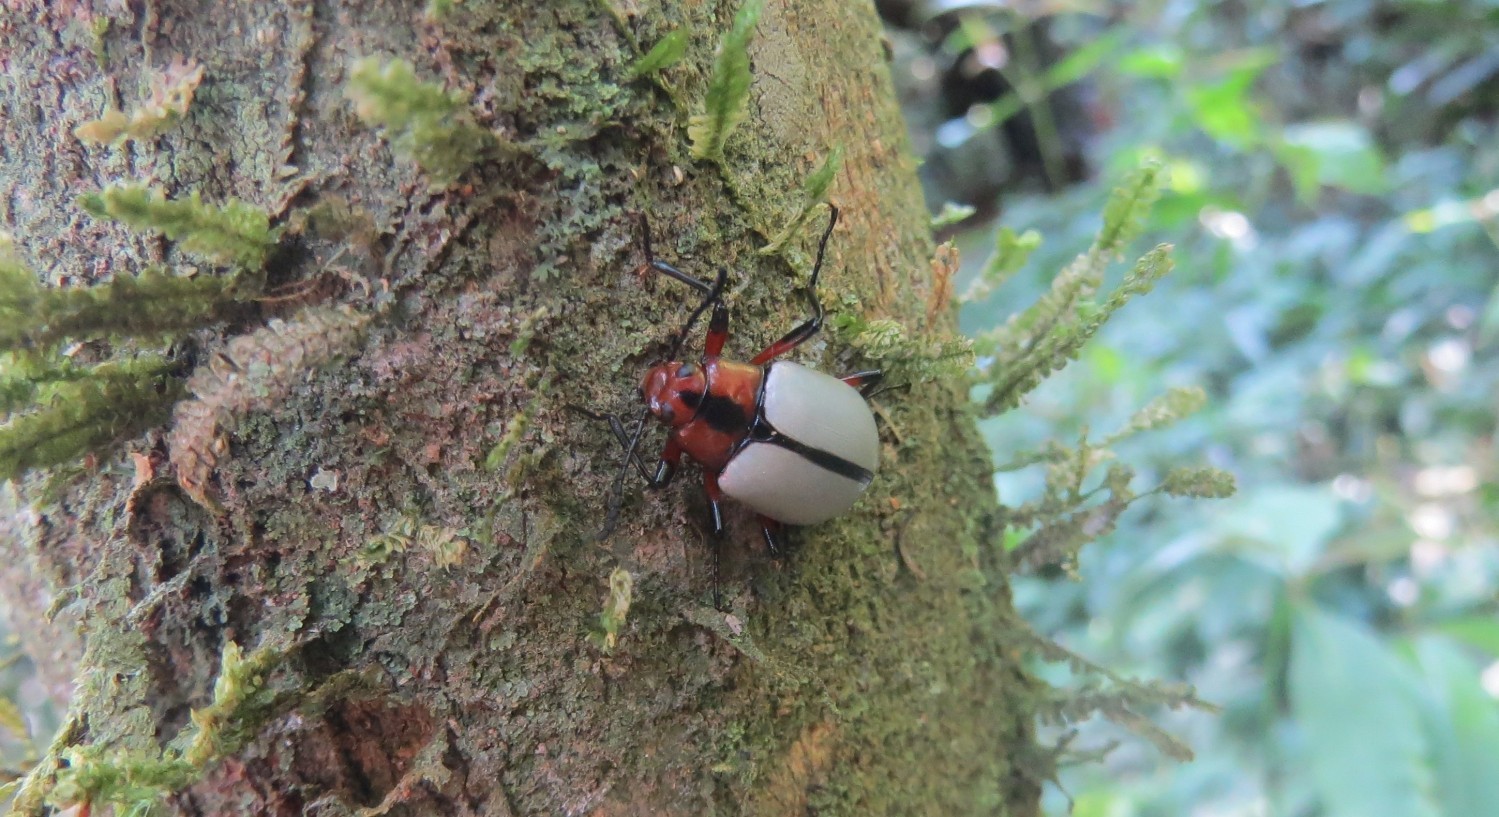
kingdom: Animalia
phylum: Arthropoda
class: Insecta
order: Coleoptera
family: Tenebrionidae
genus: Poecilesthus
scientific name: Poecilesthus
